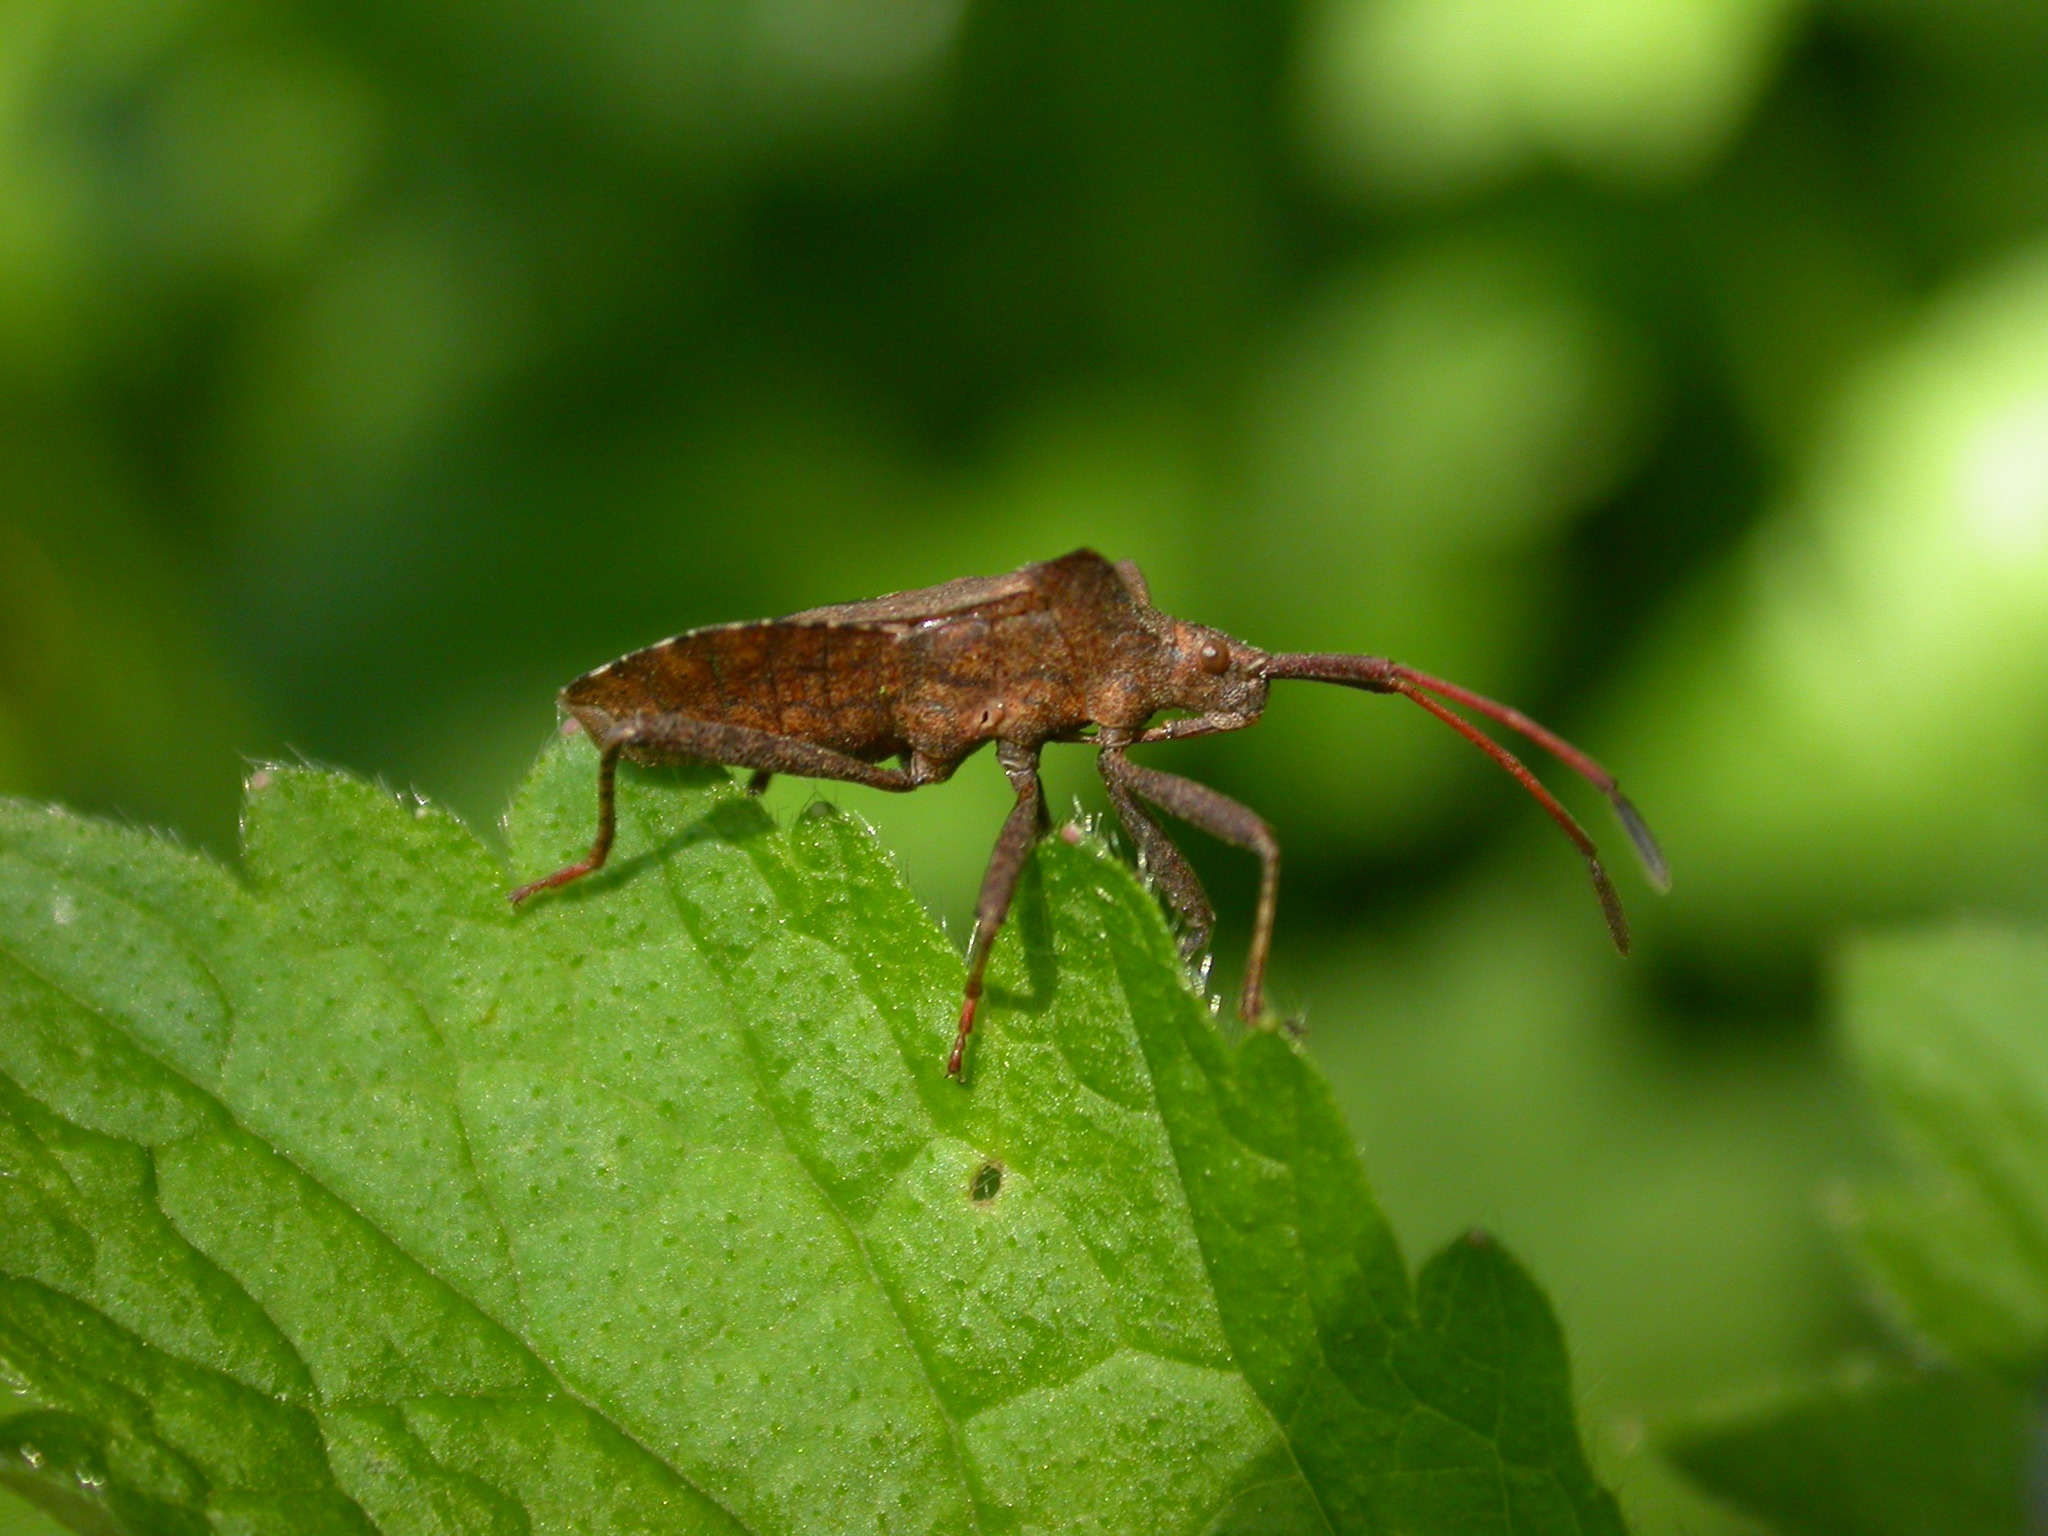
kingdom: Animalia
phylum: Arthropoda
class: Insecta
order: Hemiptera
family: Coreidae
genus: Coreus
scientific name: Coreus marginatus
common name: Dock bug
